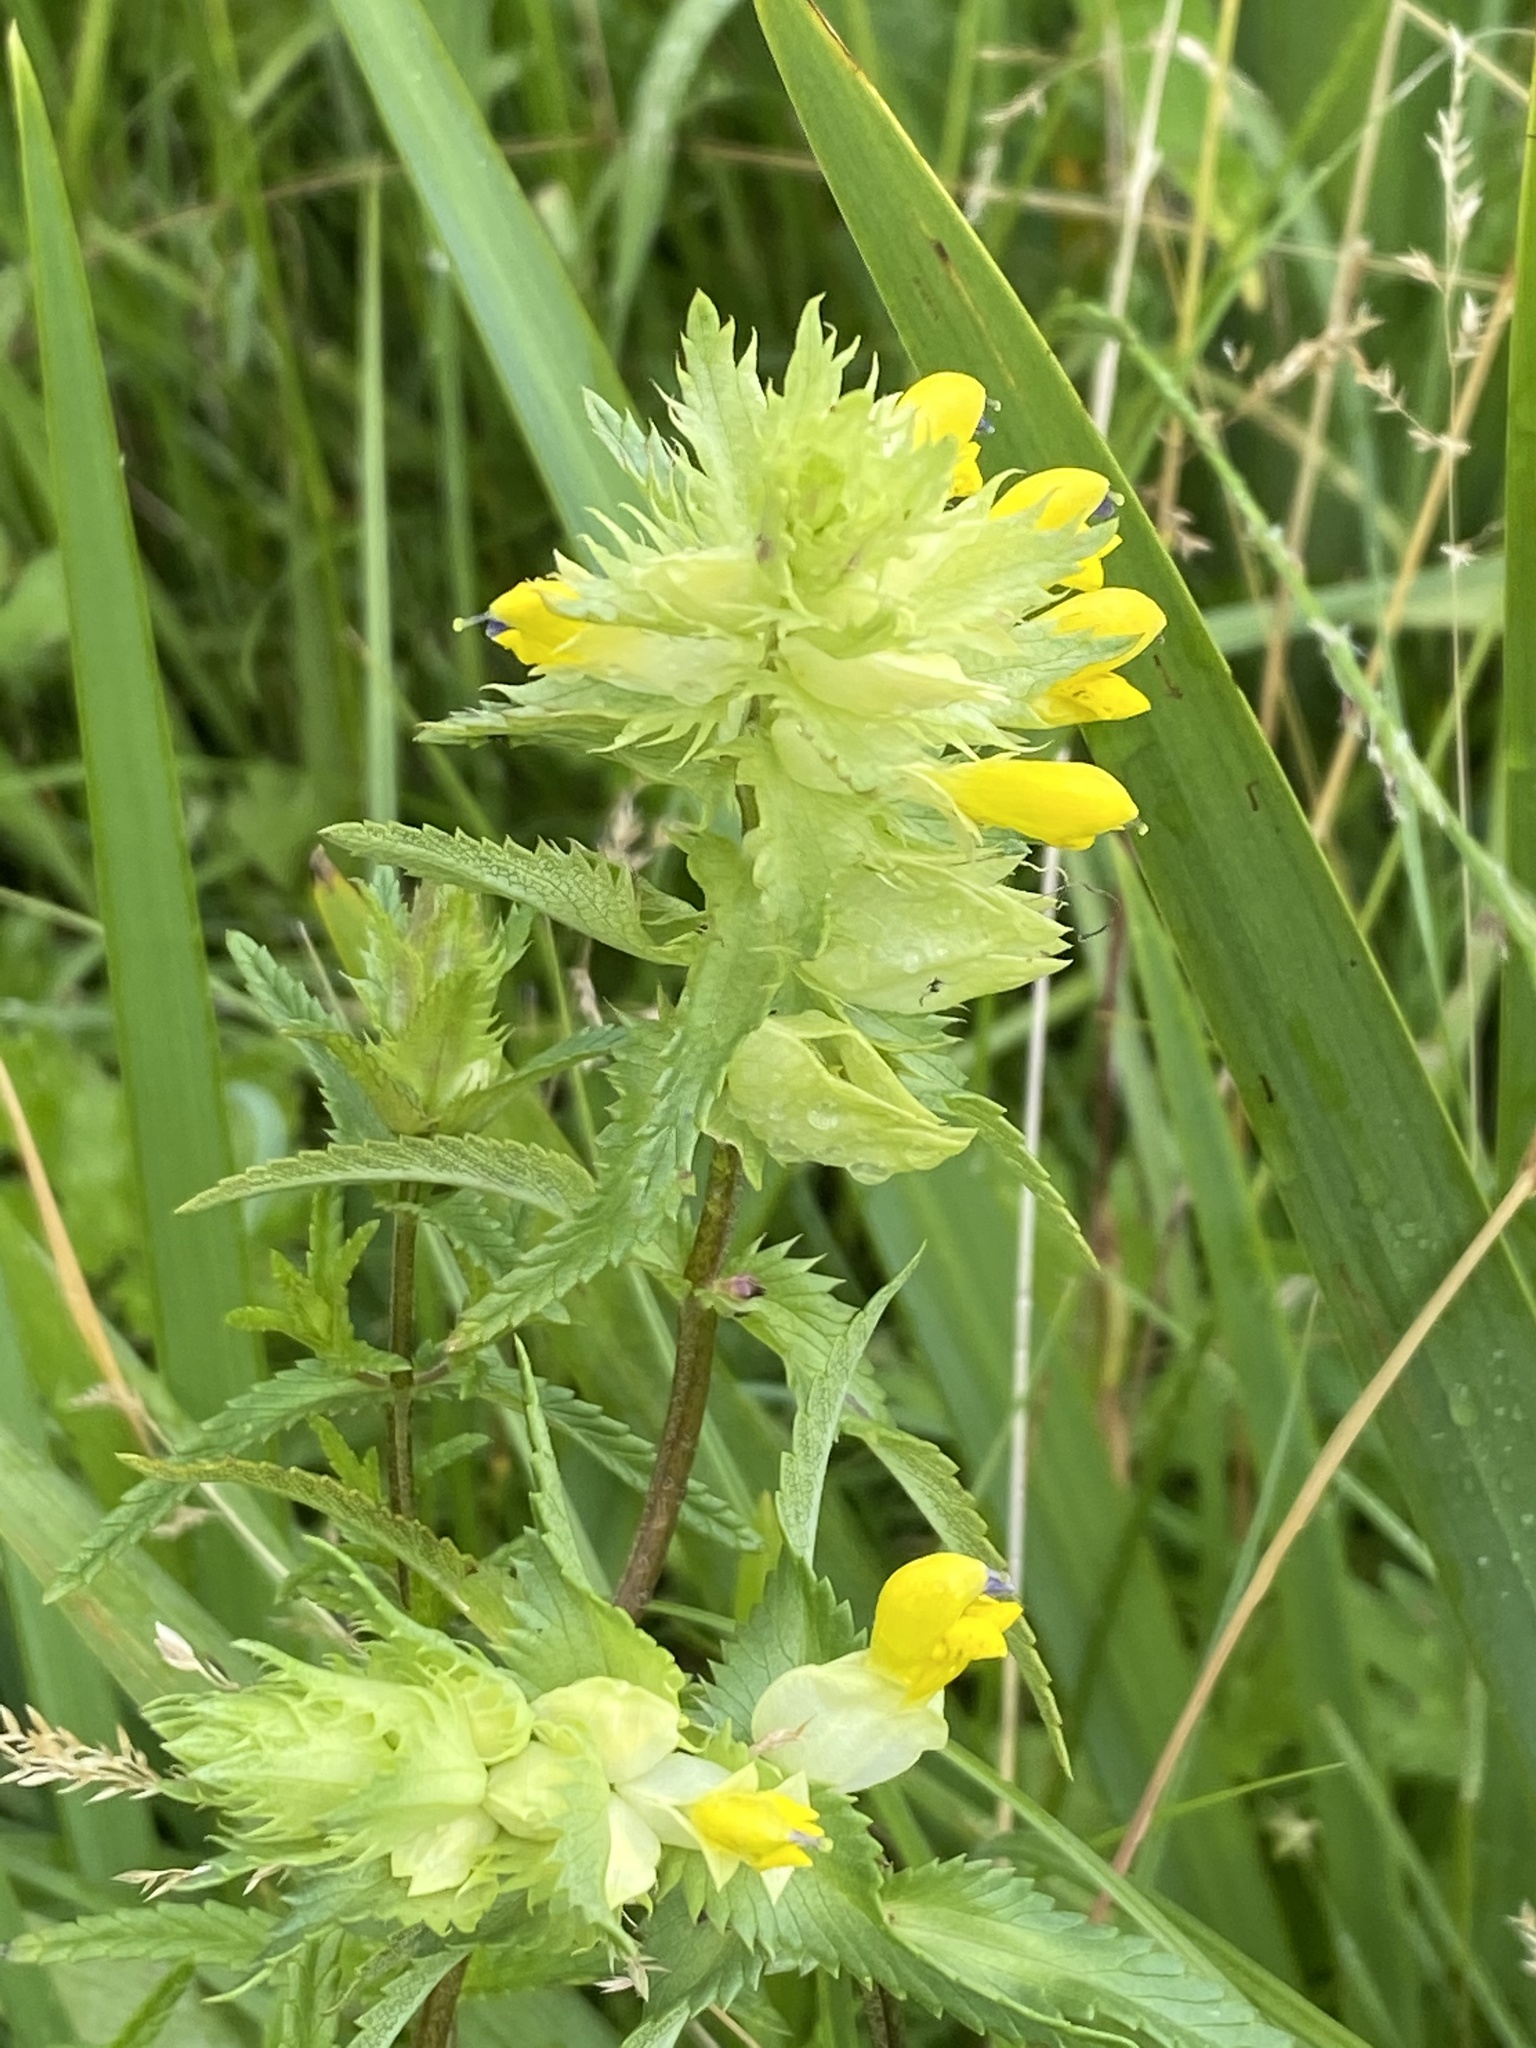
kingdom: Plantae
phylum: Tracheophyta
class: Magnoliopsida
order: Lamiales
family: Orobanchaceae
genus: Rhinanthus
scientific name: Rhinanthus serotinus
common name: Late-flowering yellow rattle
